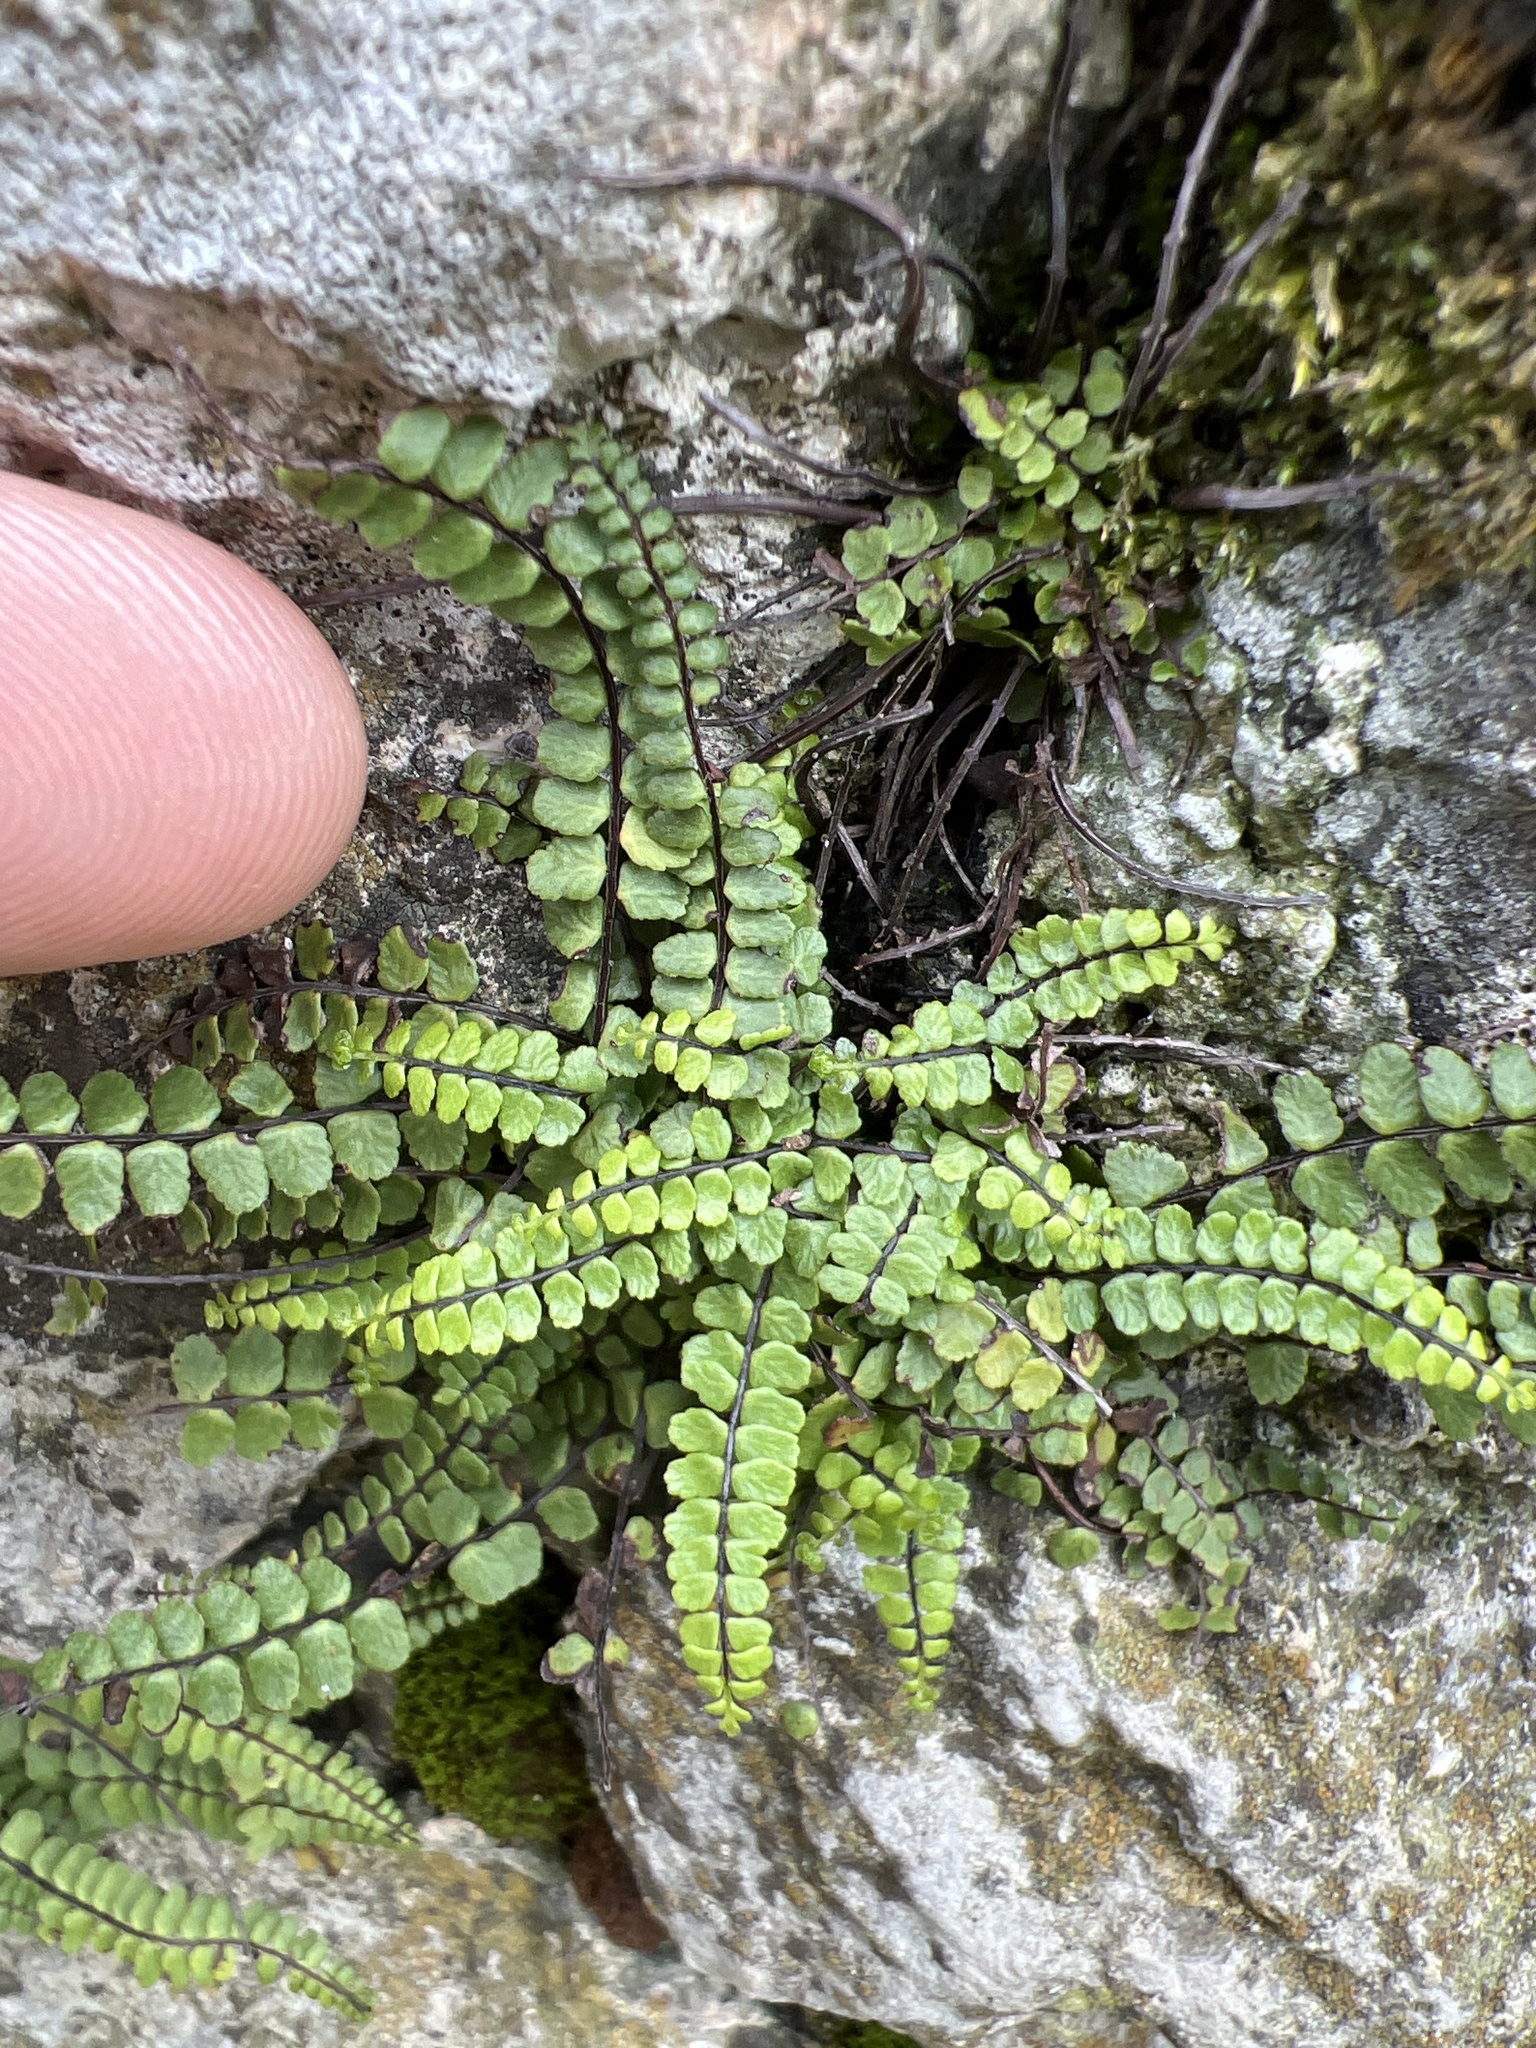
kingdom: Plantae
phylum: Tracheophyta
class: Polypodiopsida
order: Polypodiales
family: Aspleniaceae
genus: Asplenium
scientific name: Asplenium trichomanes
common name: Maidenhair spleenwort
